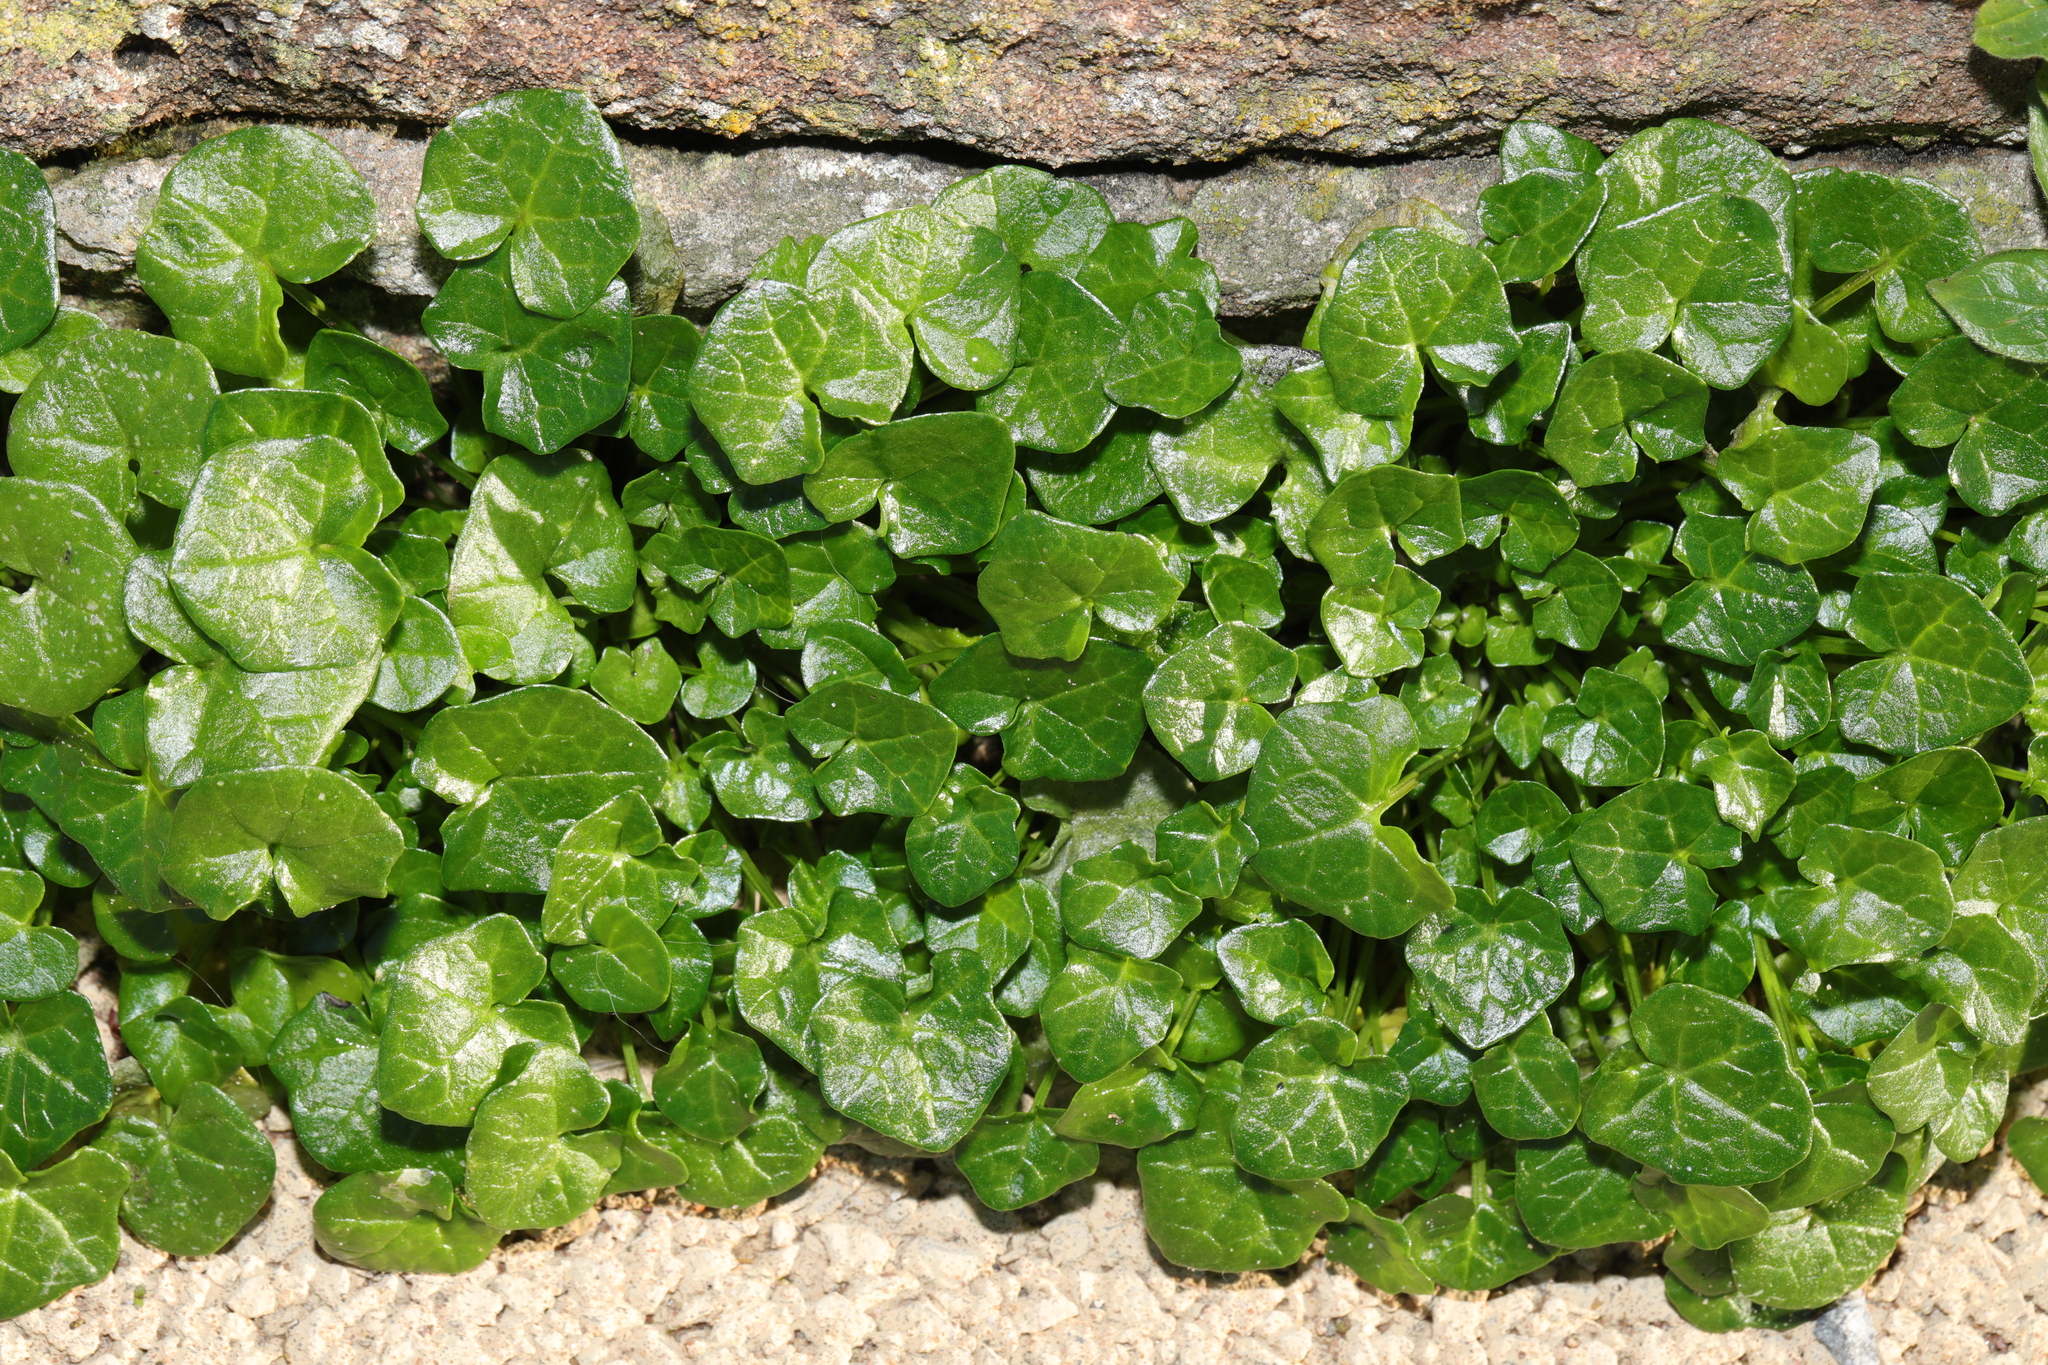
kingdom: Plantae
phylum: Tracheophyta
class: Magnoliopsida
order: Brassicales
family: Brassicaceae
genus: Cochlearia
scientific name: Cochlearia danica
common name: Early scurvygrass
